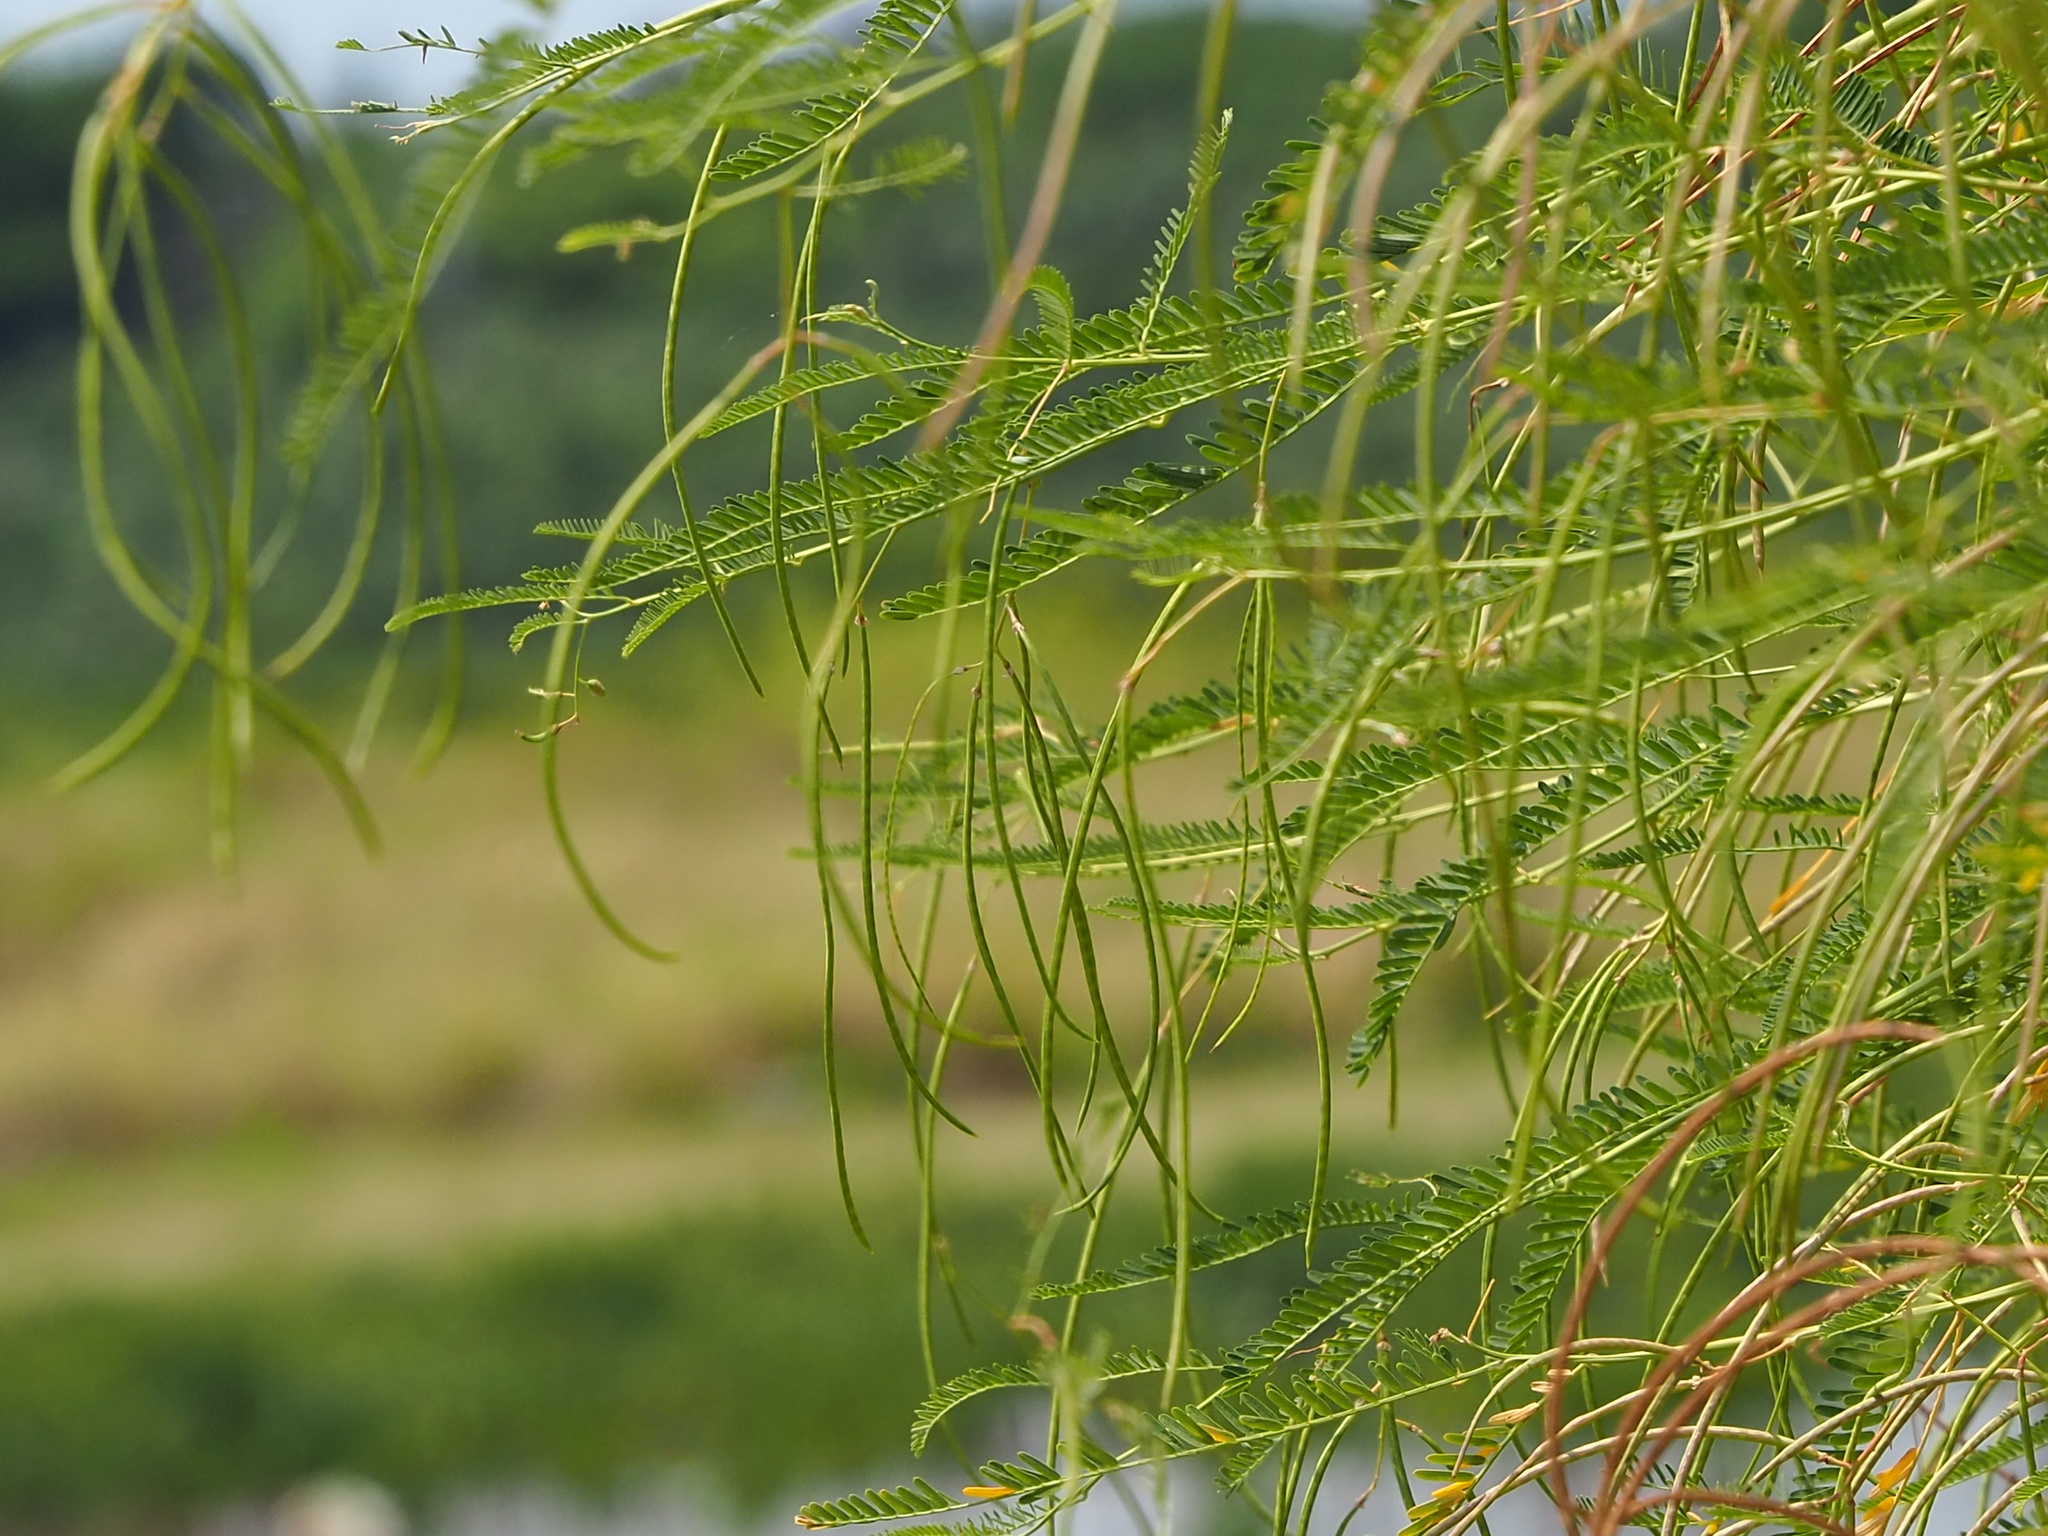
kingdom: Plantae
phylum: Tracheophyta
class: Magnoliopsida
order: Fabales
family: Fabaceae
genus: Sesbania
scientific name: Sesbania cannabina
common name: Canicha
